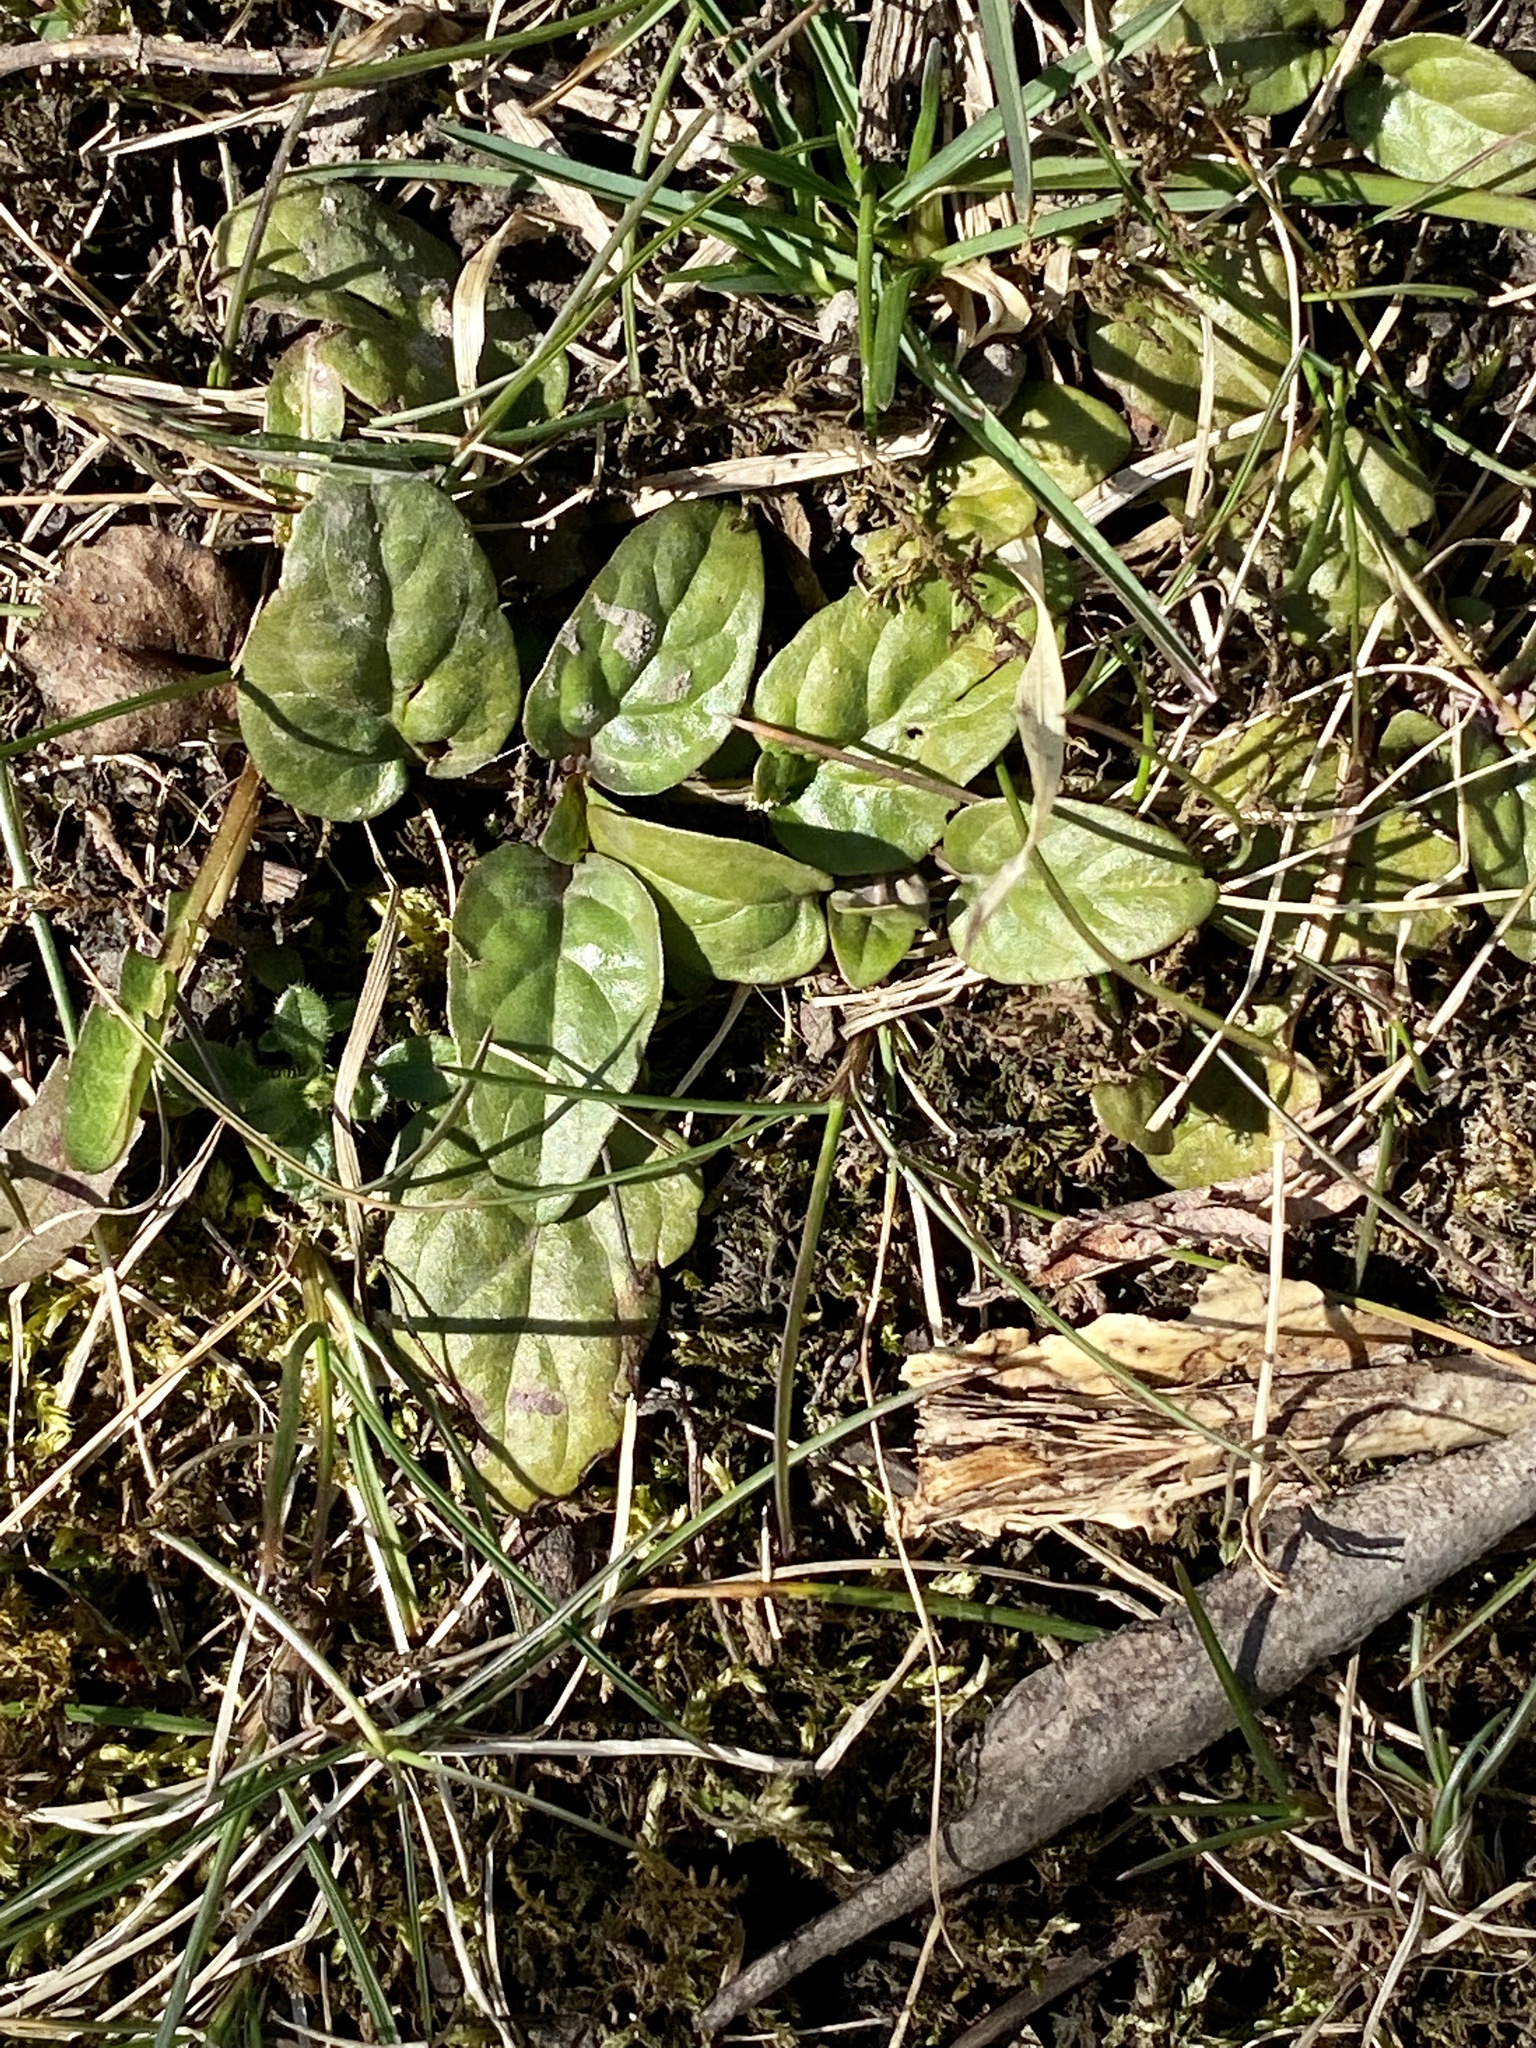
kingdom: Plantae
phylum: Tracheophyta
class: Magnoliopsida
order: Lamiales
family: Lamiaceae
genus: Prunella
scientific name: Prunella vulgaris
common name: Heal-all
